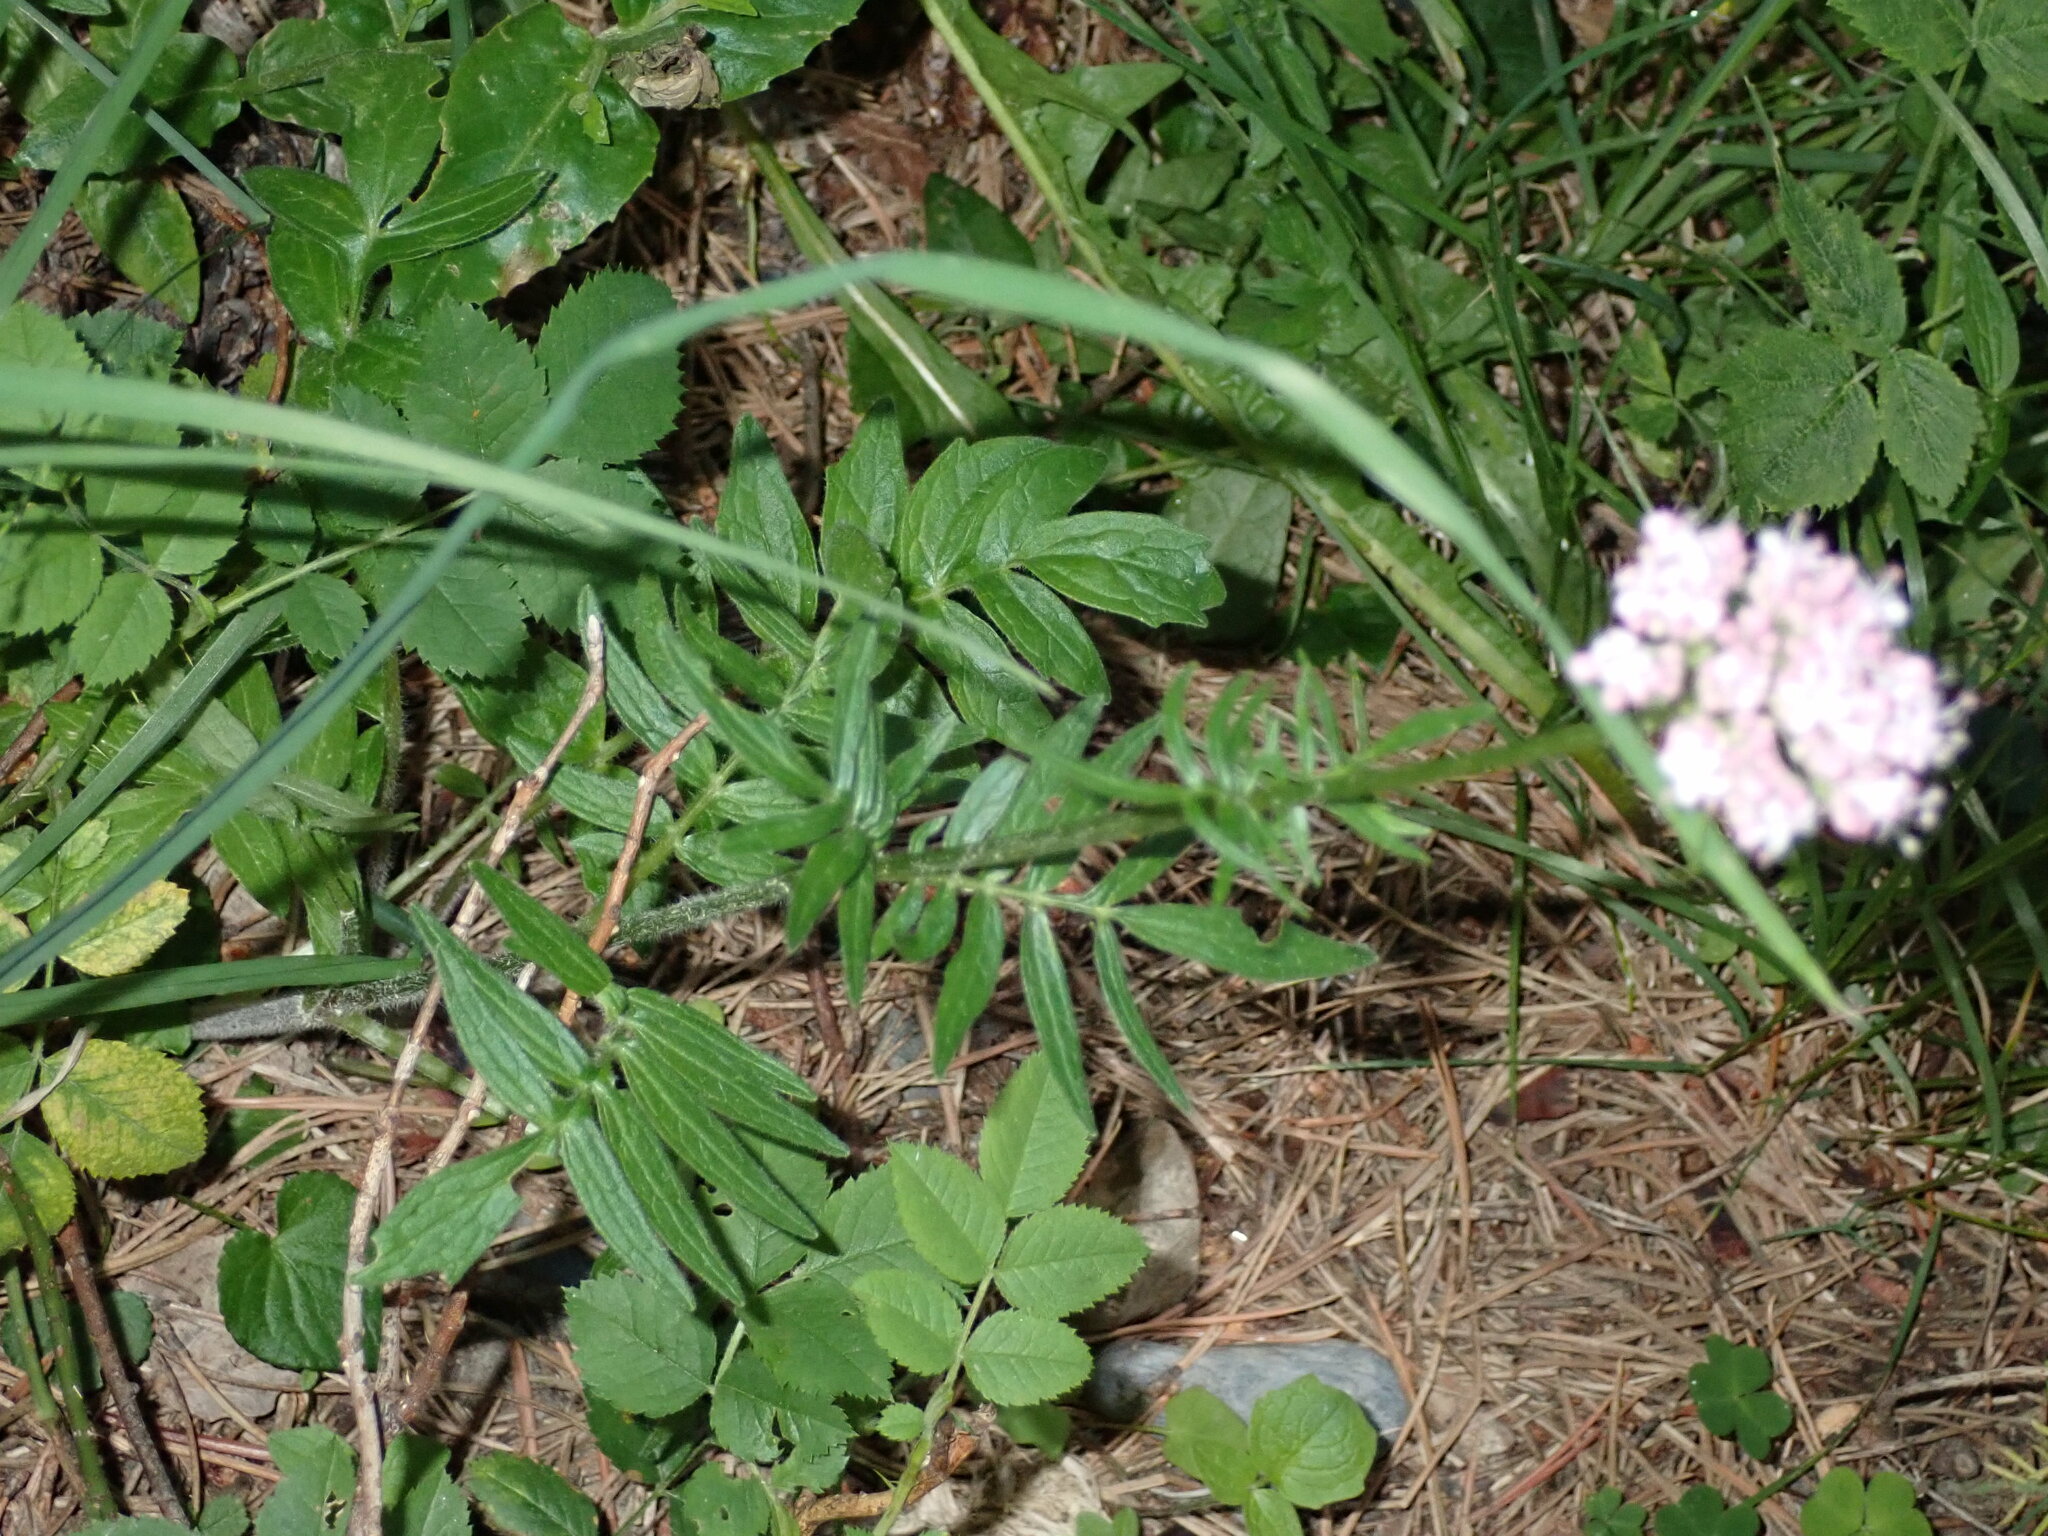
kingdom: Plantae
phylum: Tracheophyta
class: Magnoliopsida
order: Dipsacales
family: Caprifoliaceae
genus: Valeriana
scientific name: Valeriana officinalis
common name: Common valerian
